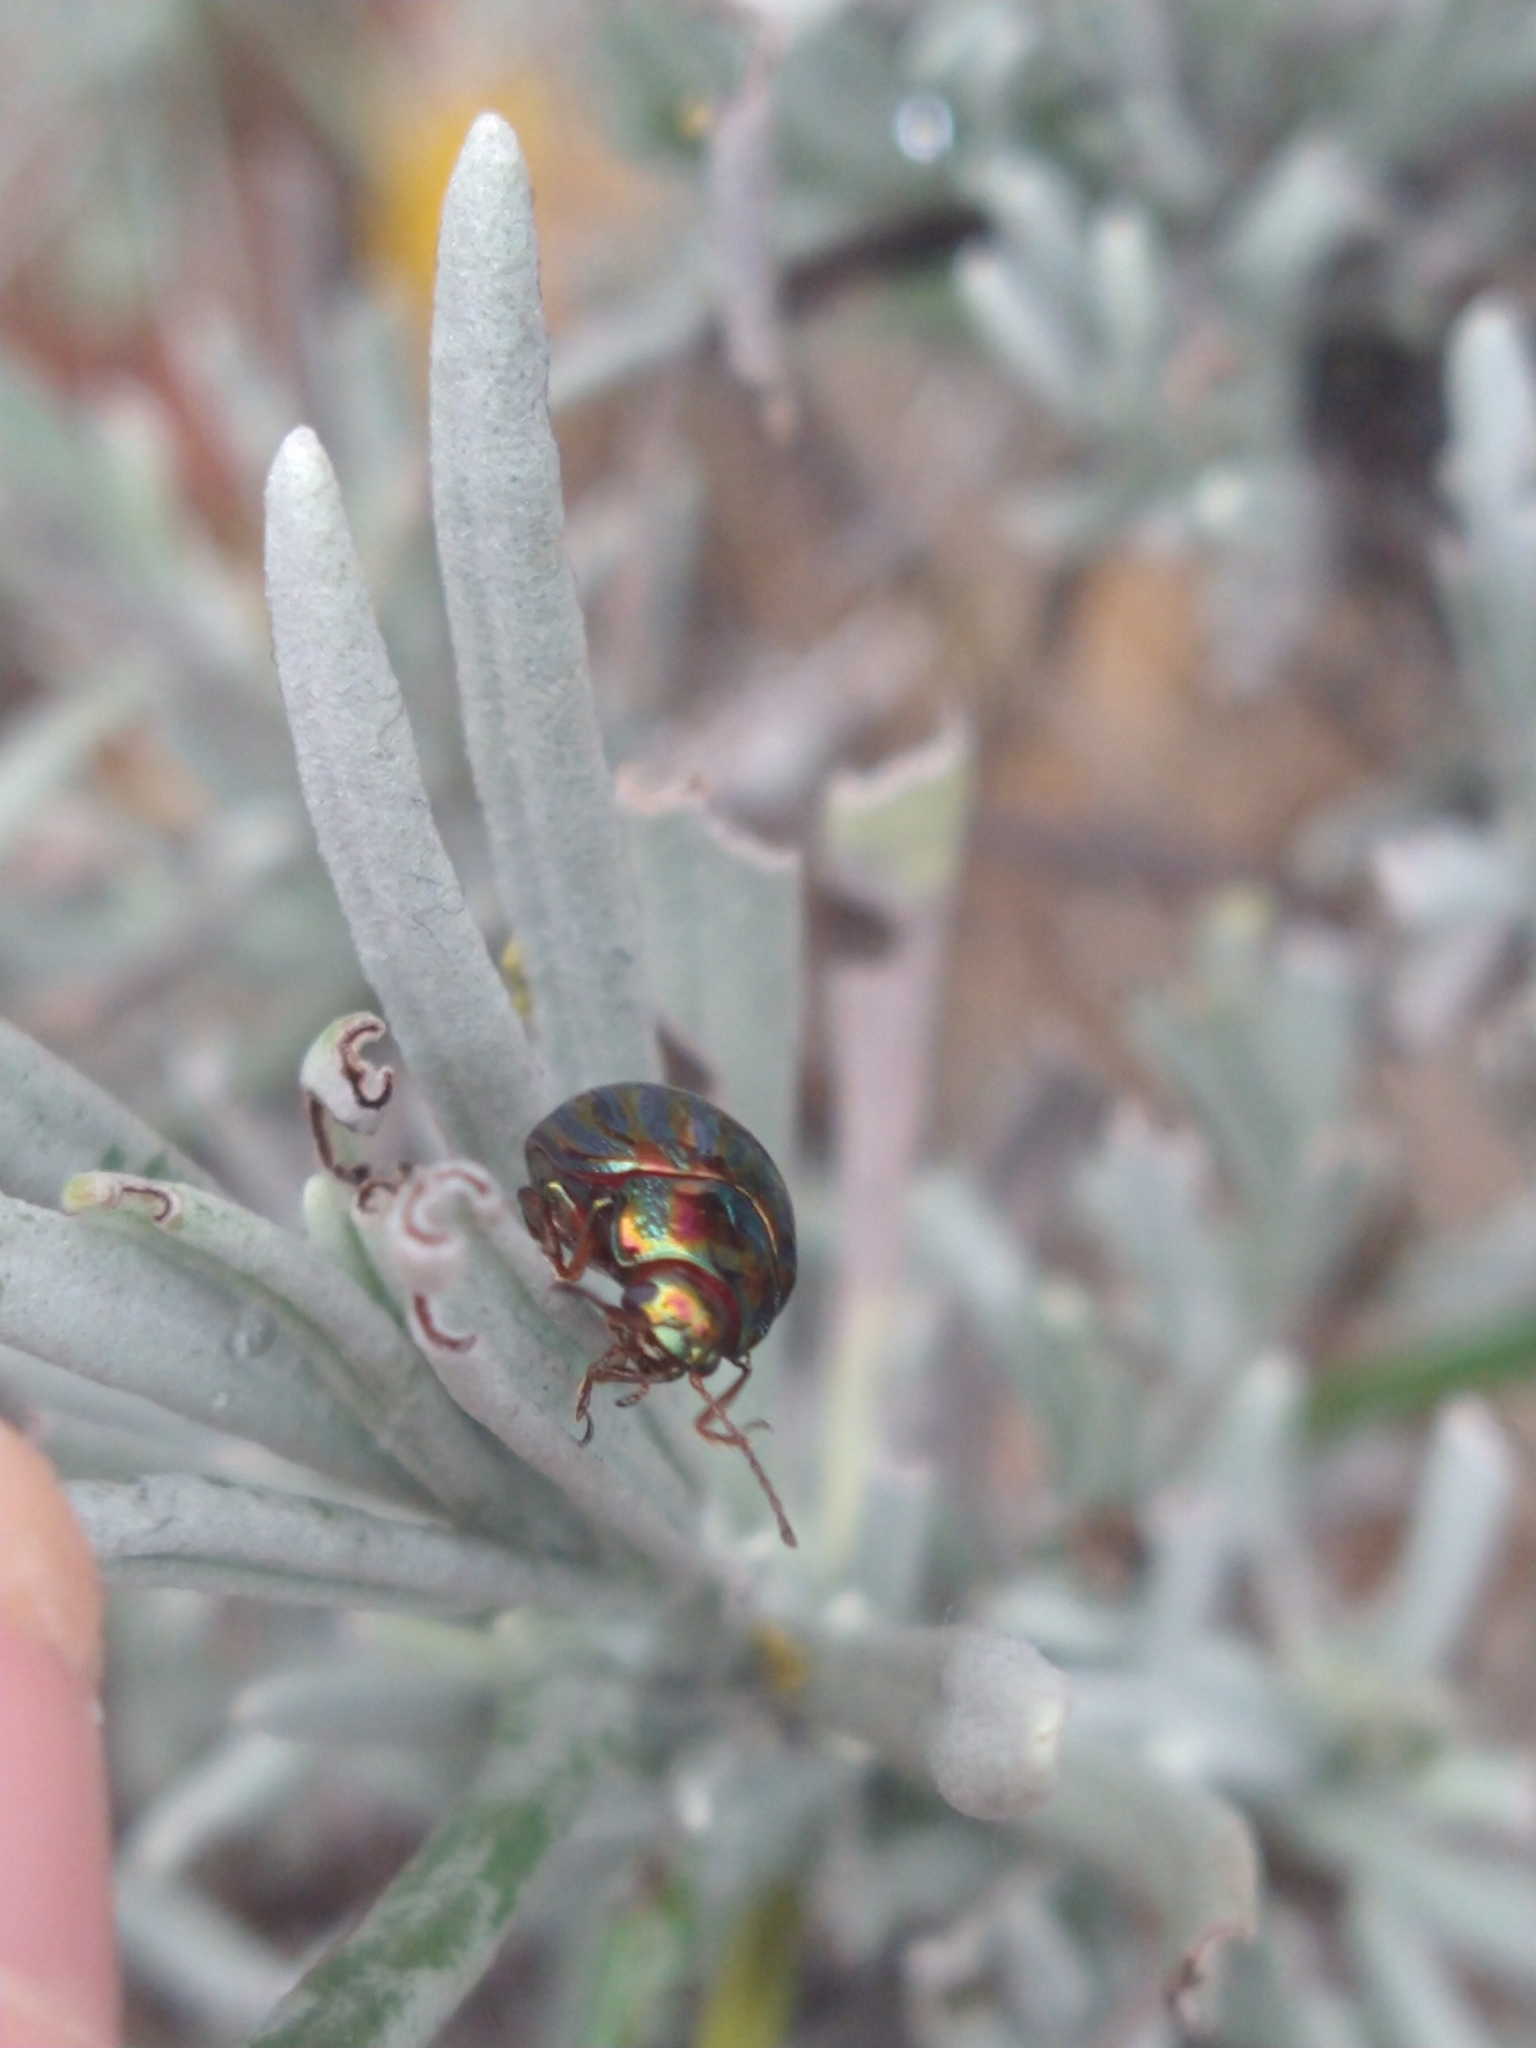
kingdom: Animalia
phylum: Arthropoda
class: Insecta
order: Coleoptera
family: Chrysomelidae
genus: Chrysolina
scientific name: Chrysolina americana
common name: Rosemary beetle
